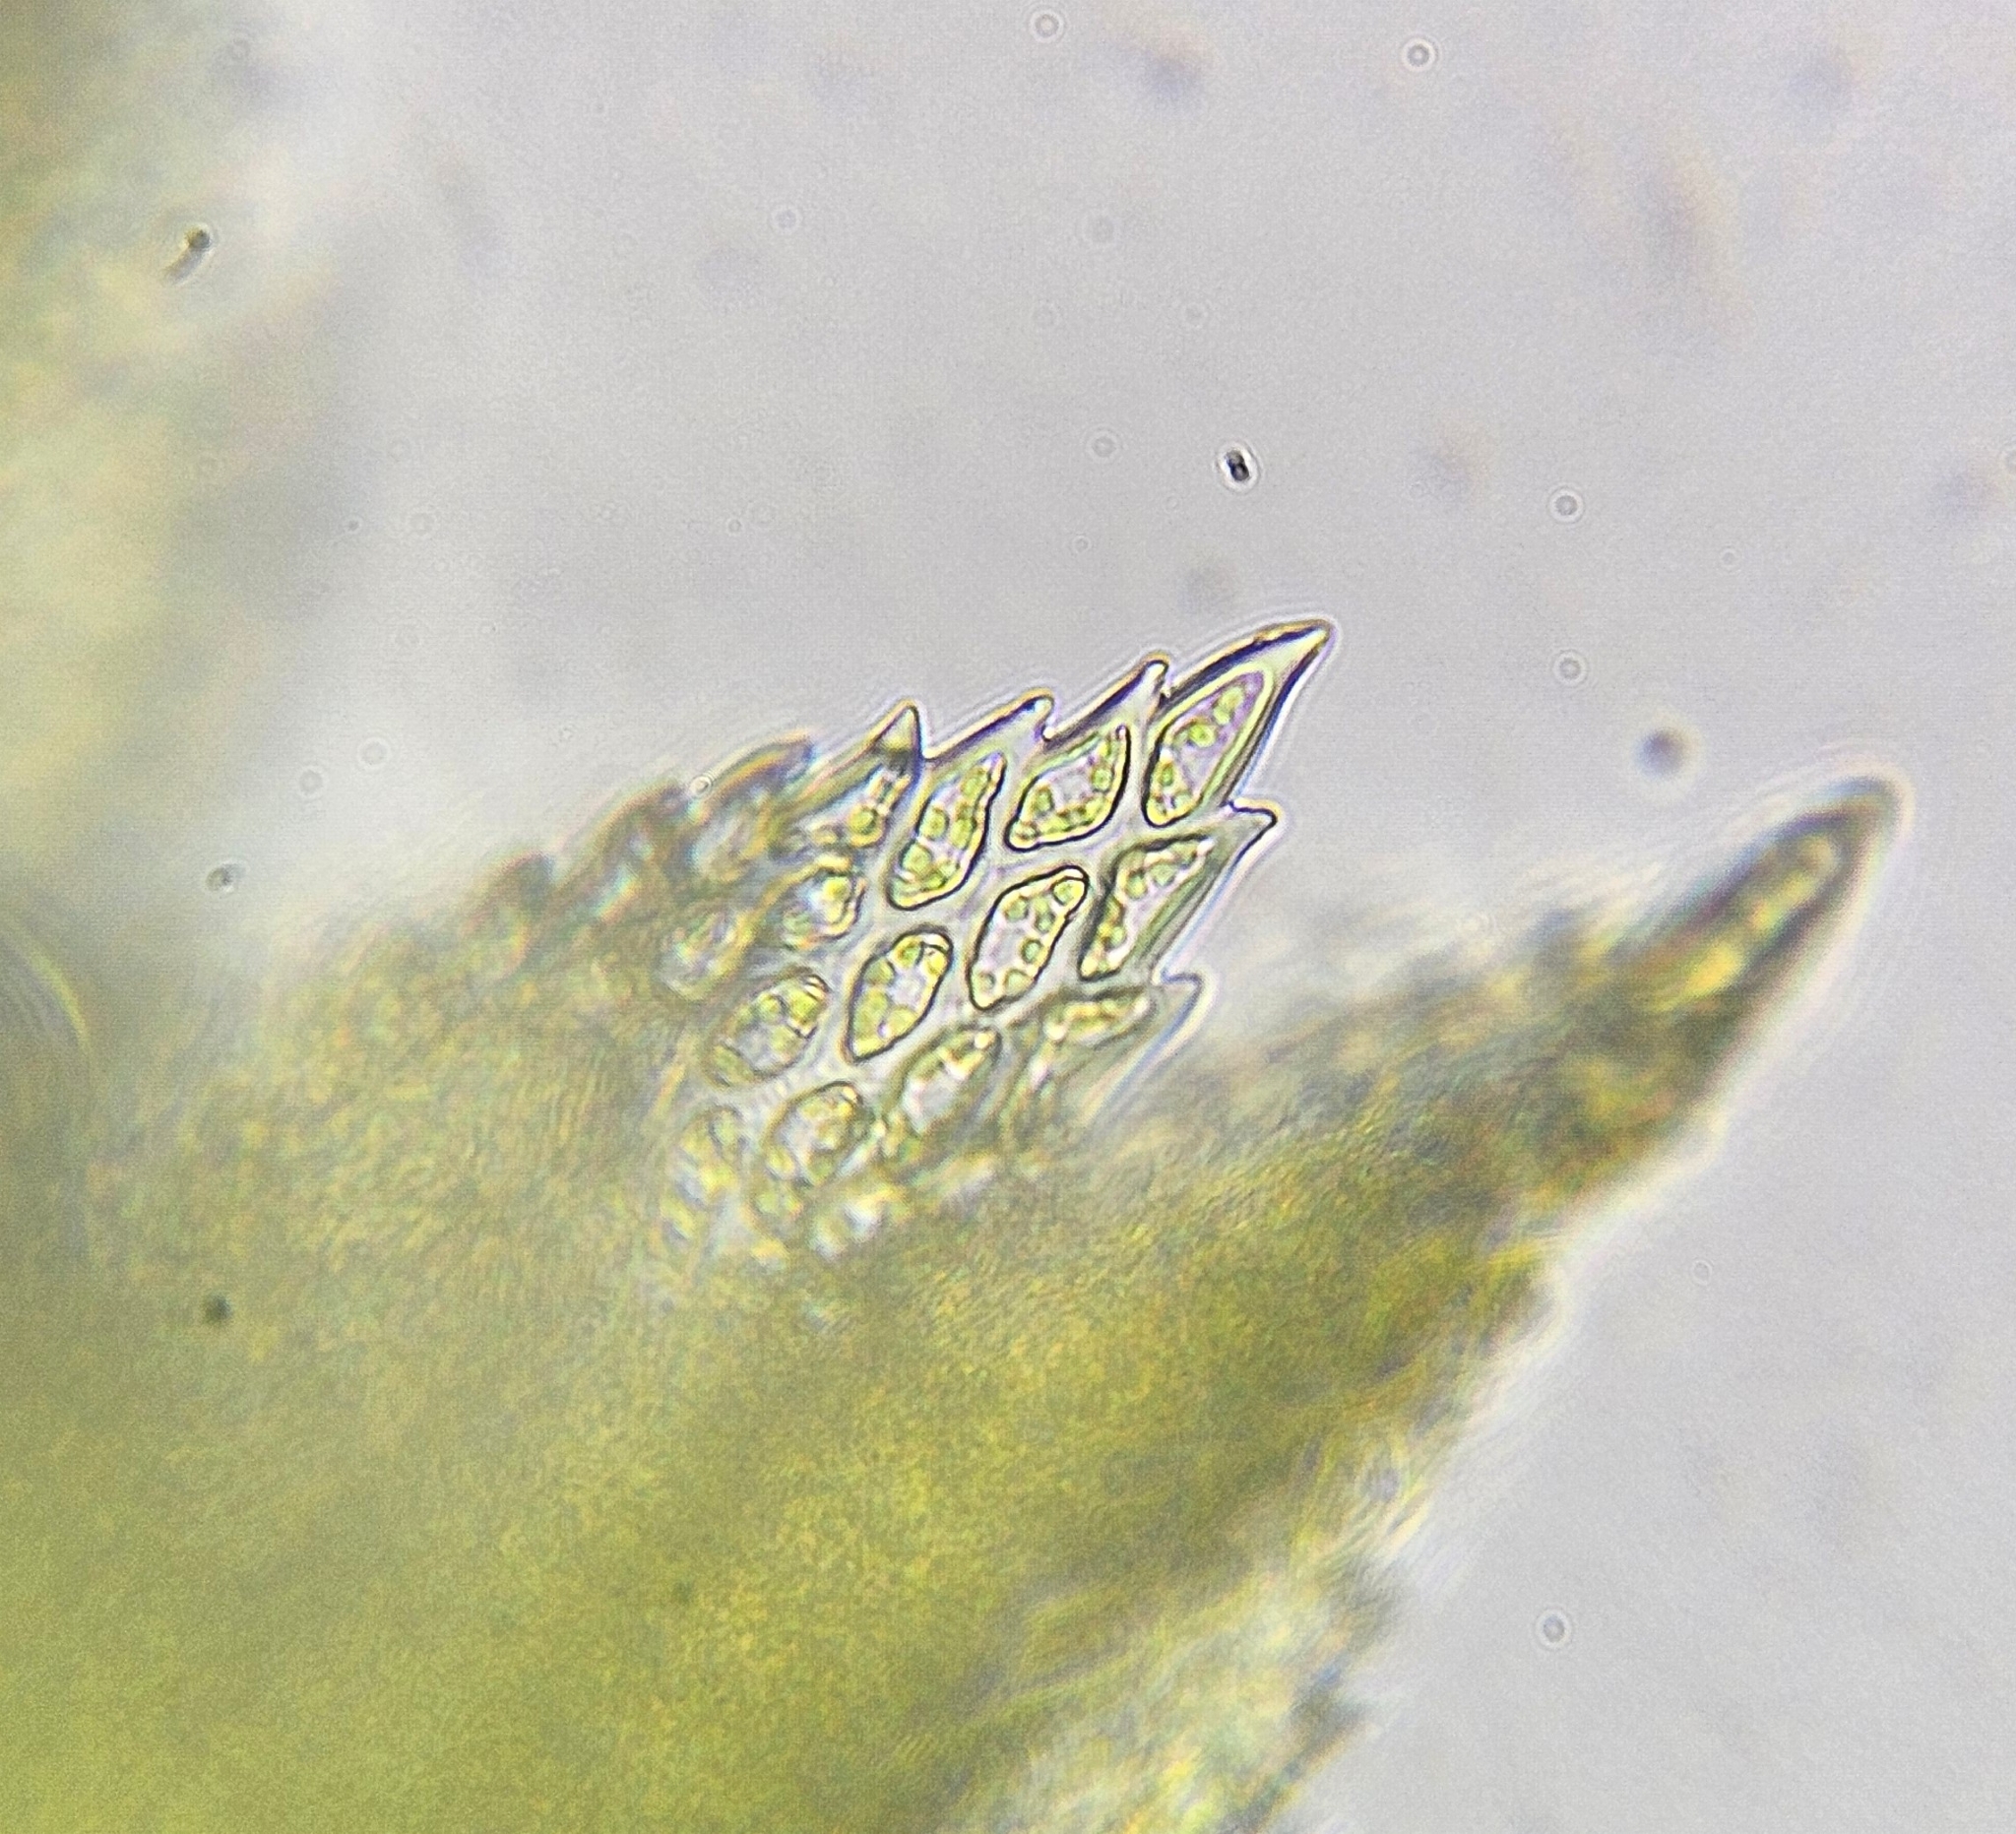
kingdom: Plantae
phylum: Bryophyta
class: Bryopsida
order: Hypnales
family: Thuidiaceae
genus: Thuidium
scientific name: Thuidium tamariscinum
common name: Common tamarisk-moss
